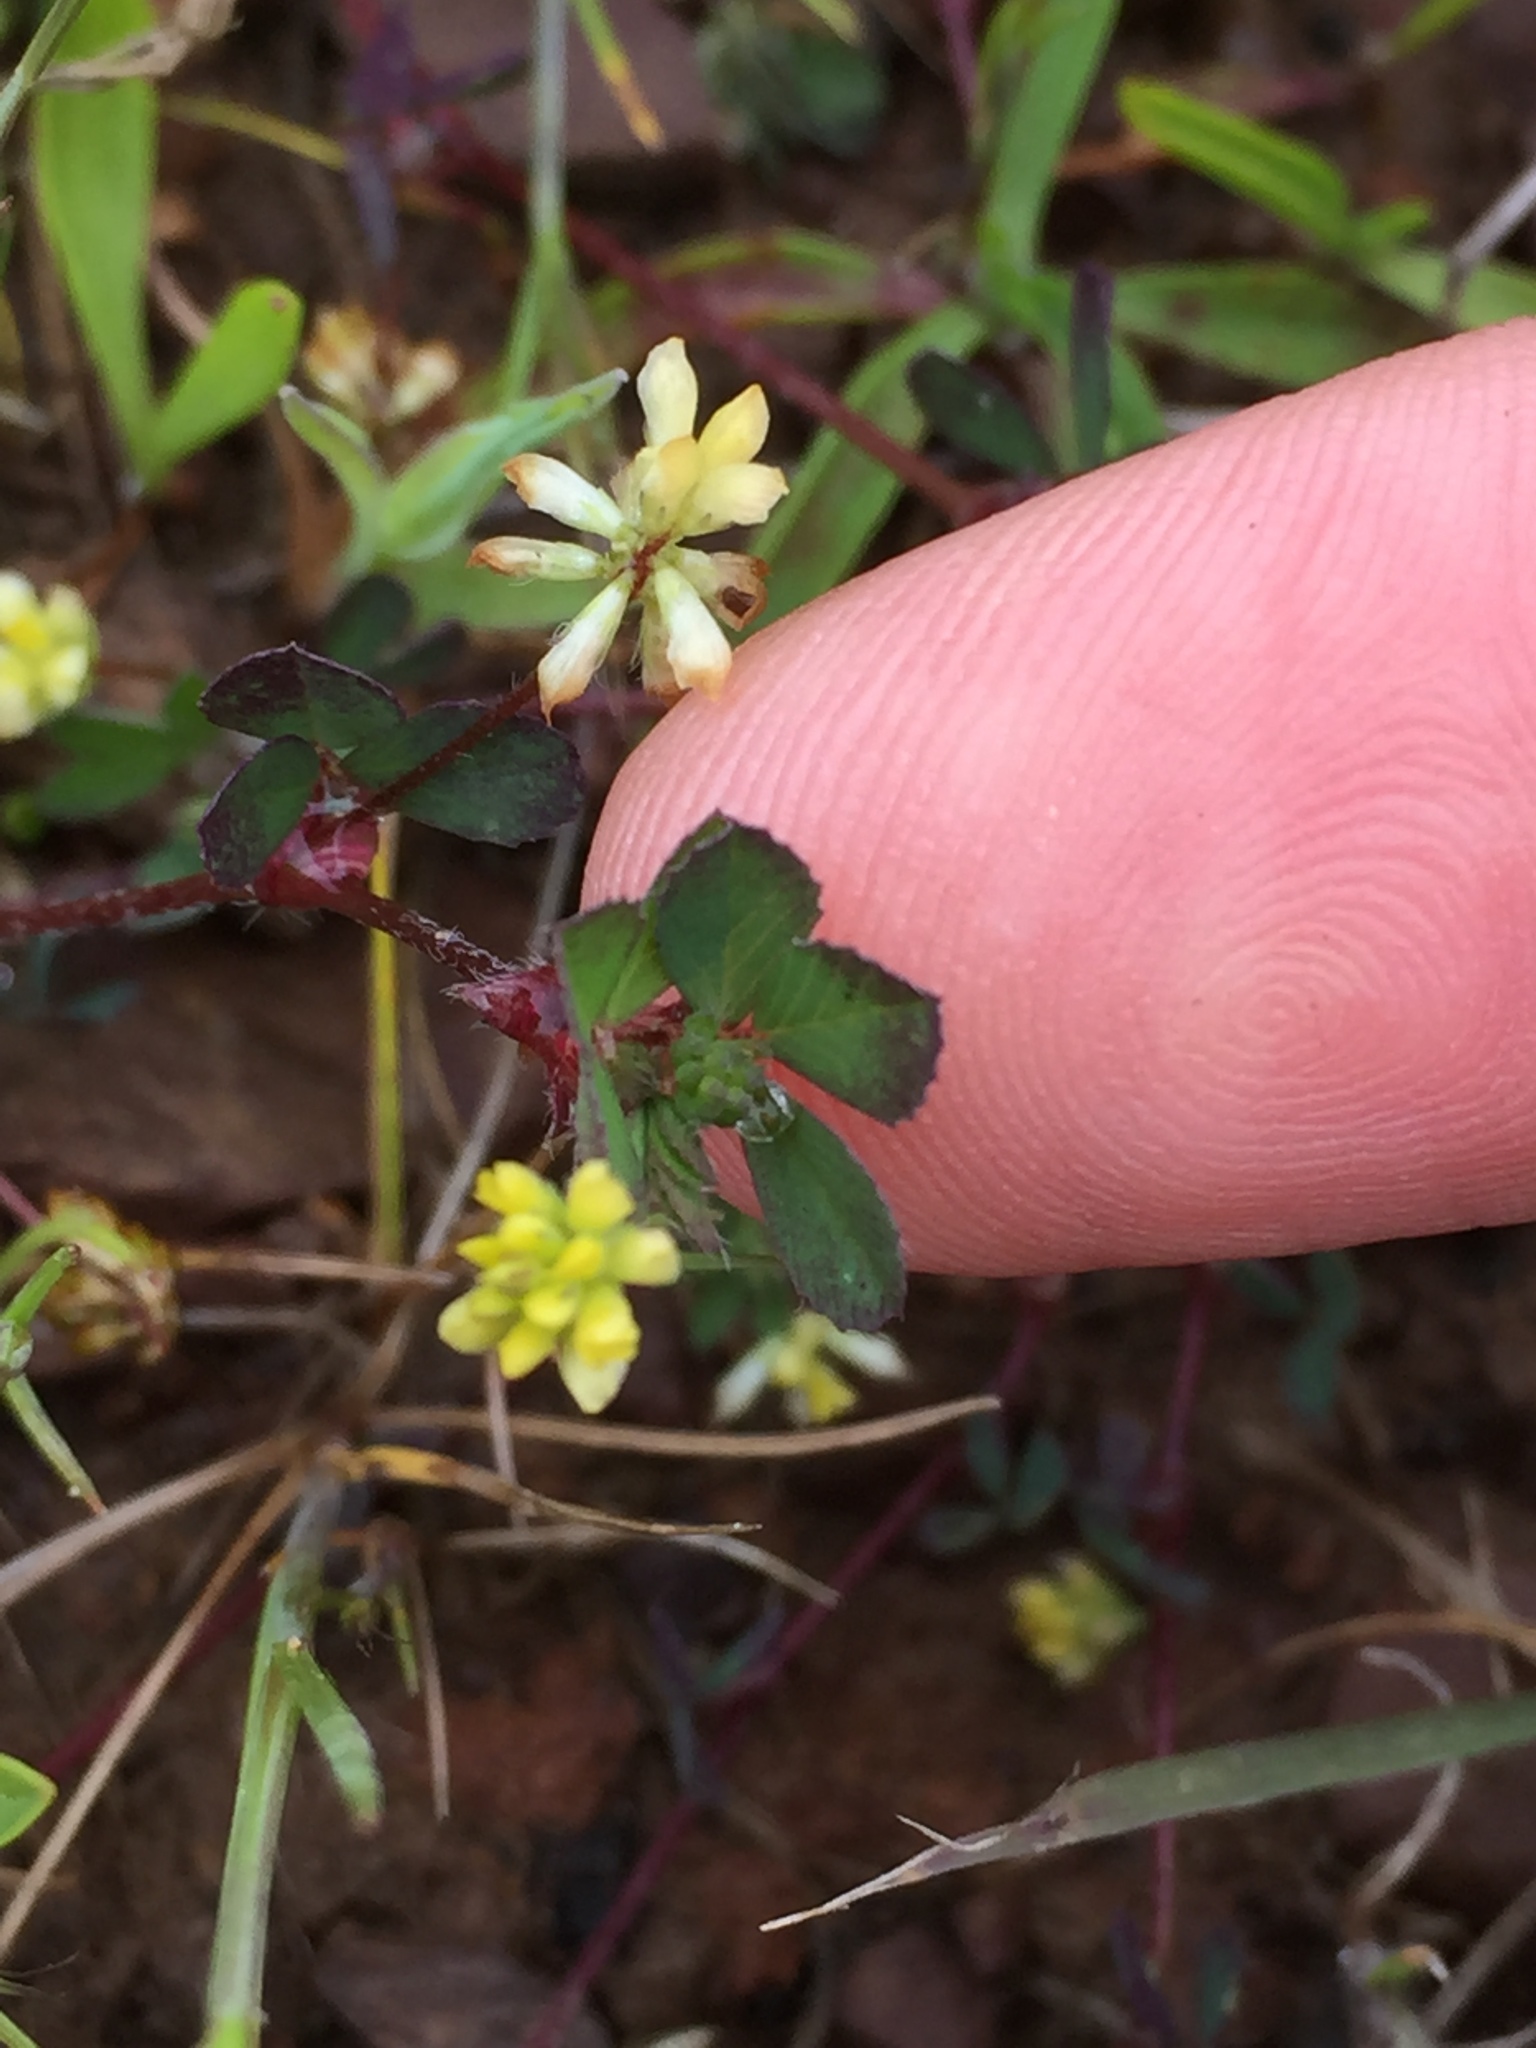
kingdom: Plantae
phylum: Tracheophyta
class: Magnoliopsida
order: Fabales
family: Fabaceae
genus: Trifolium
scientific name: Trifolium dubium
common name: Suckling clover
